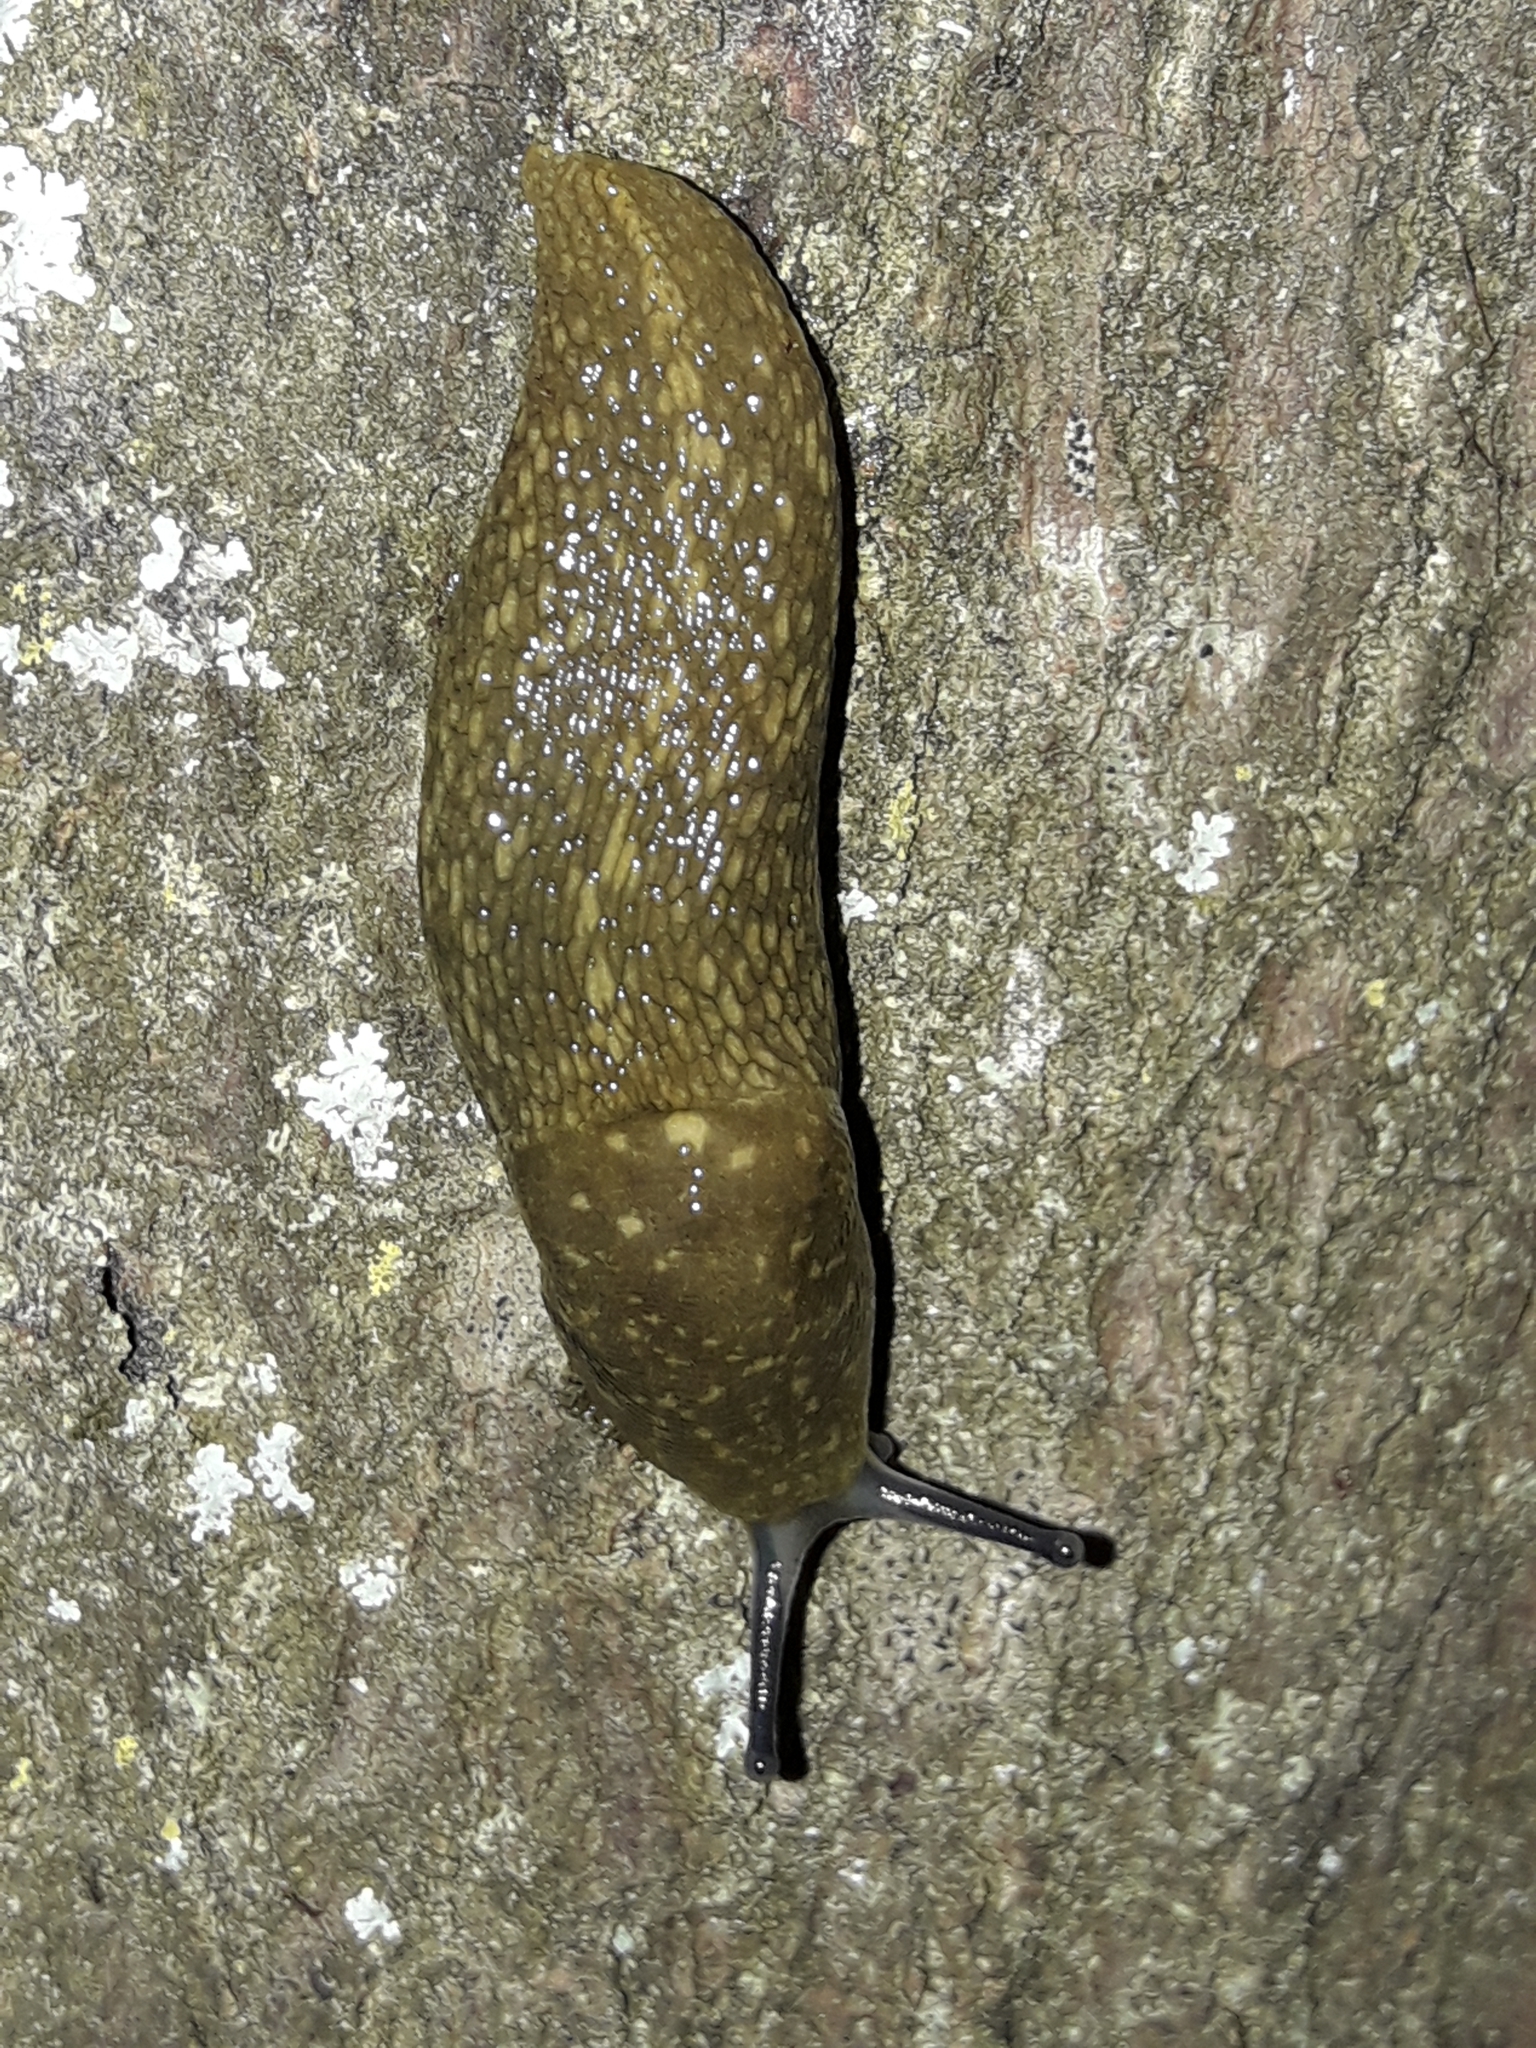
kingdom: Animalia
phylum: Mollusca
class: Gastropoda
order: Stylommatophora
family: Limacidae
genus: Limacus
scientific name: Limacus flavus
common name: Yellow gardenslug
